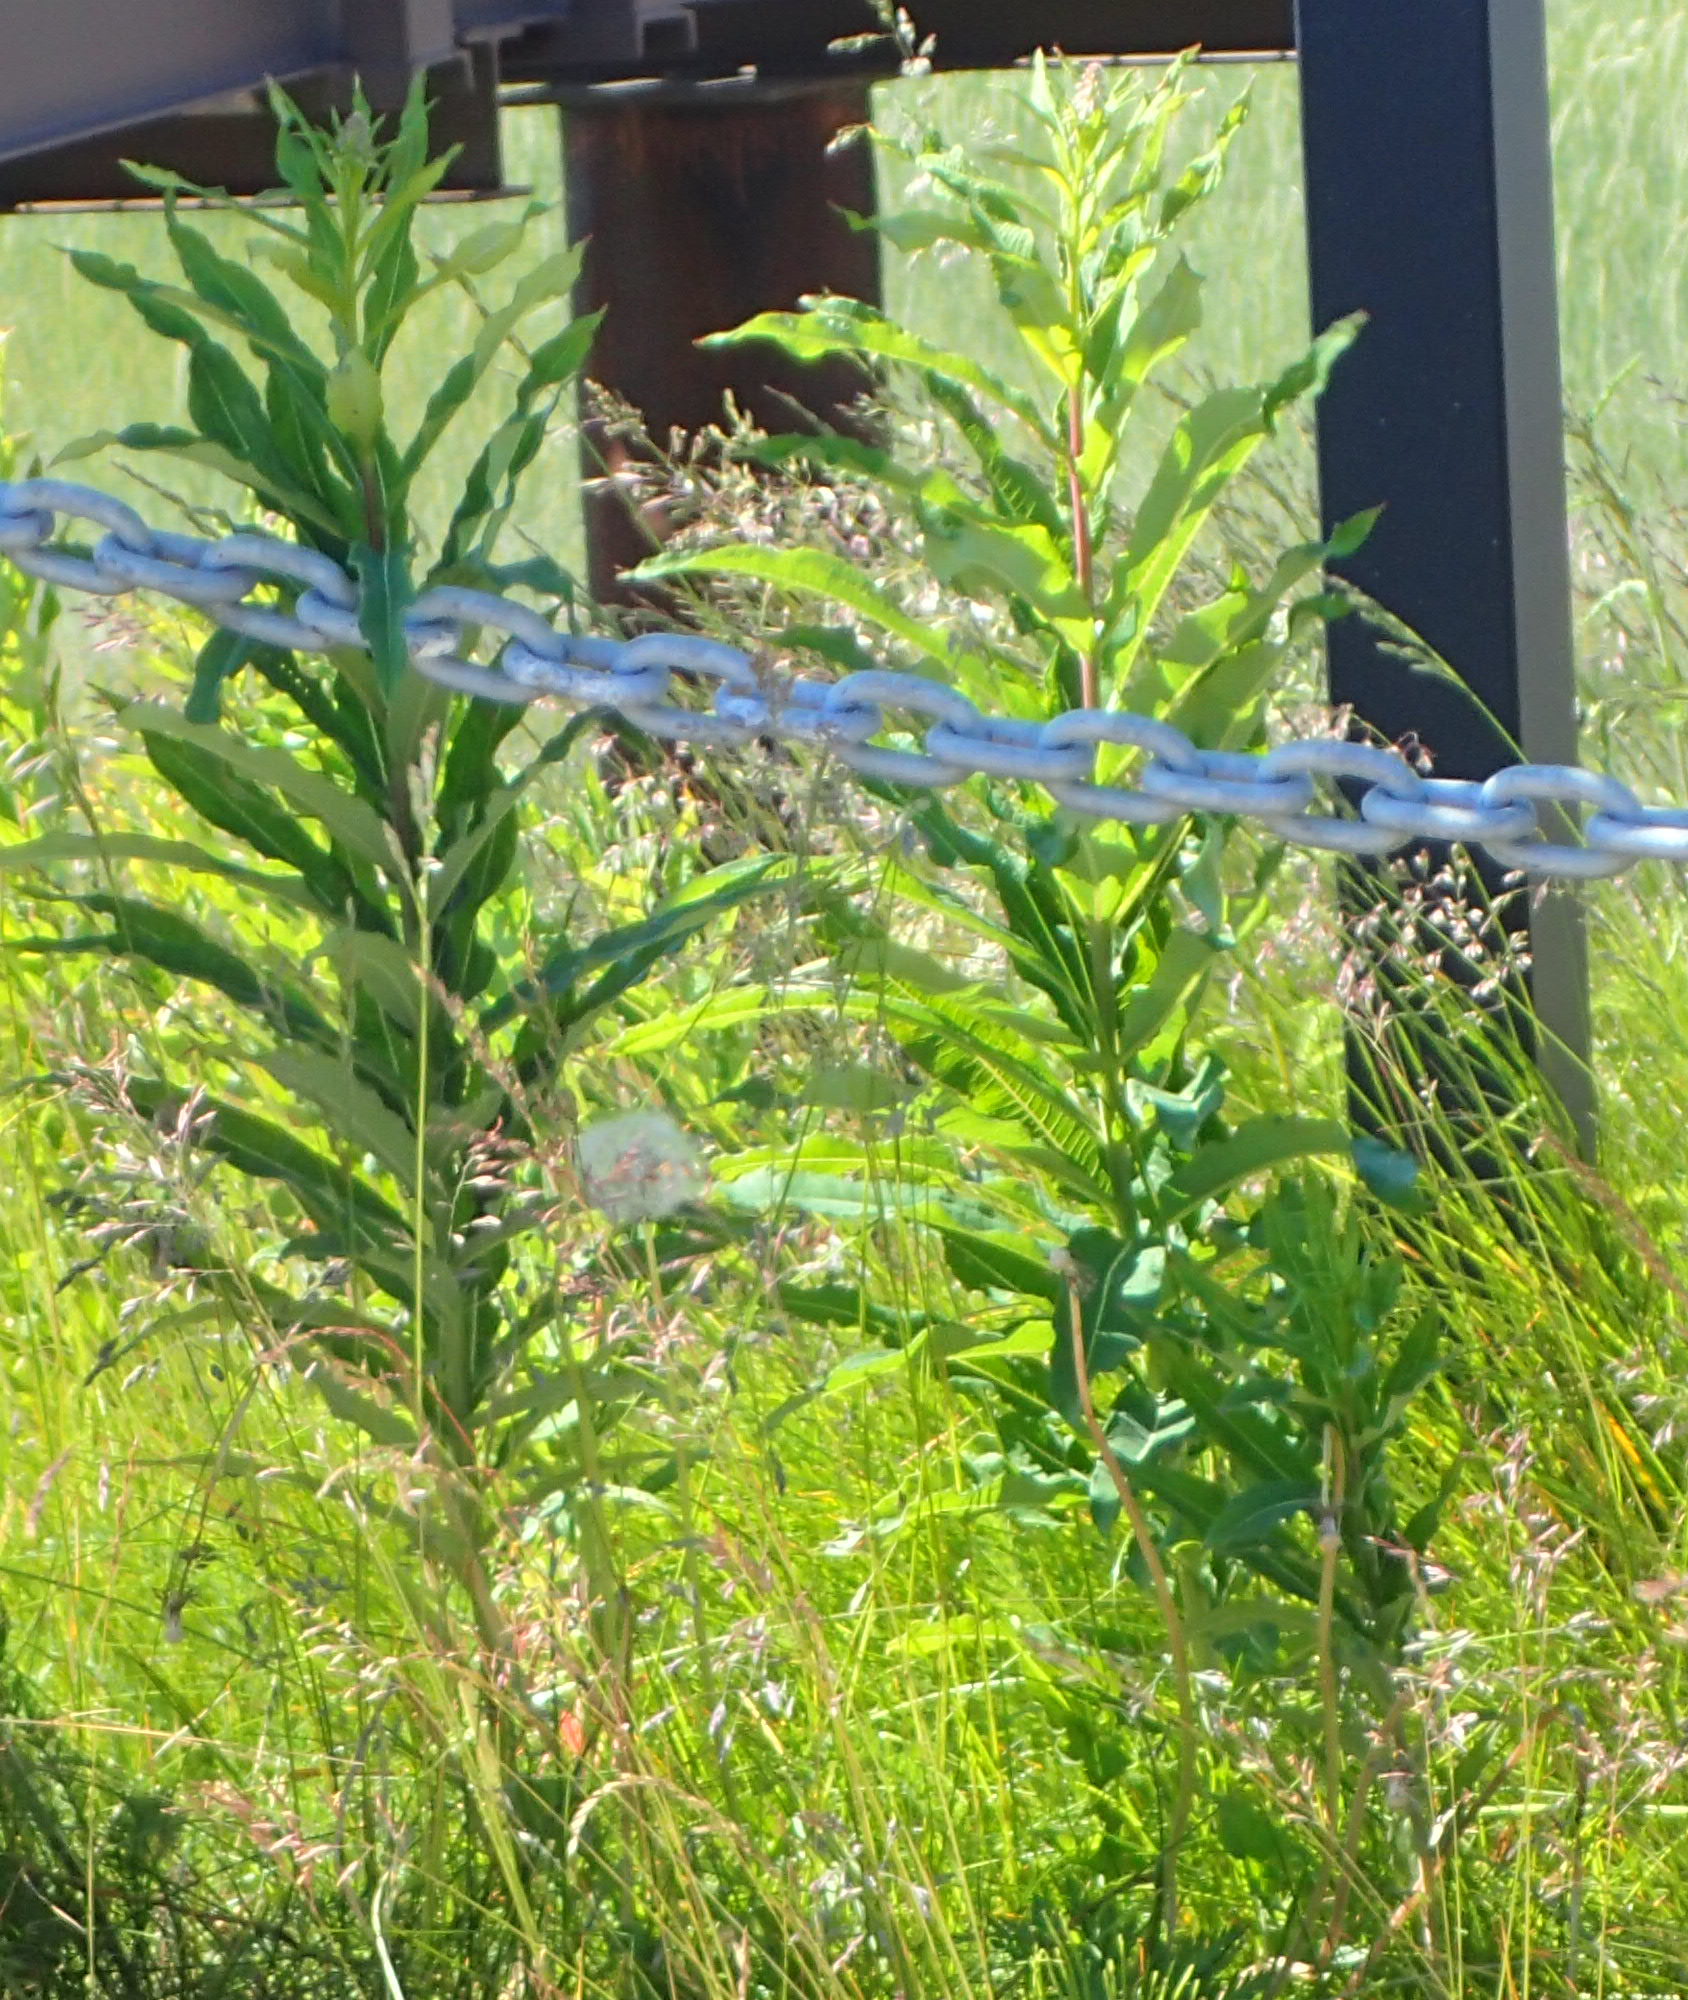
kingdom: Plantae
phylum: Tracheophyta
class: Magnoliopsida
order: Myrtales
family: Onagraceae
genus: Chamaenerion
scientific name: Chamaenerion angustifolium
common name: Fireweed
